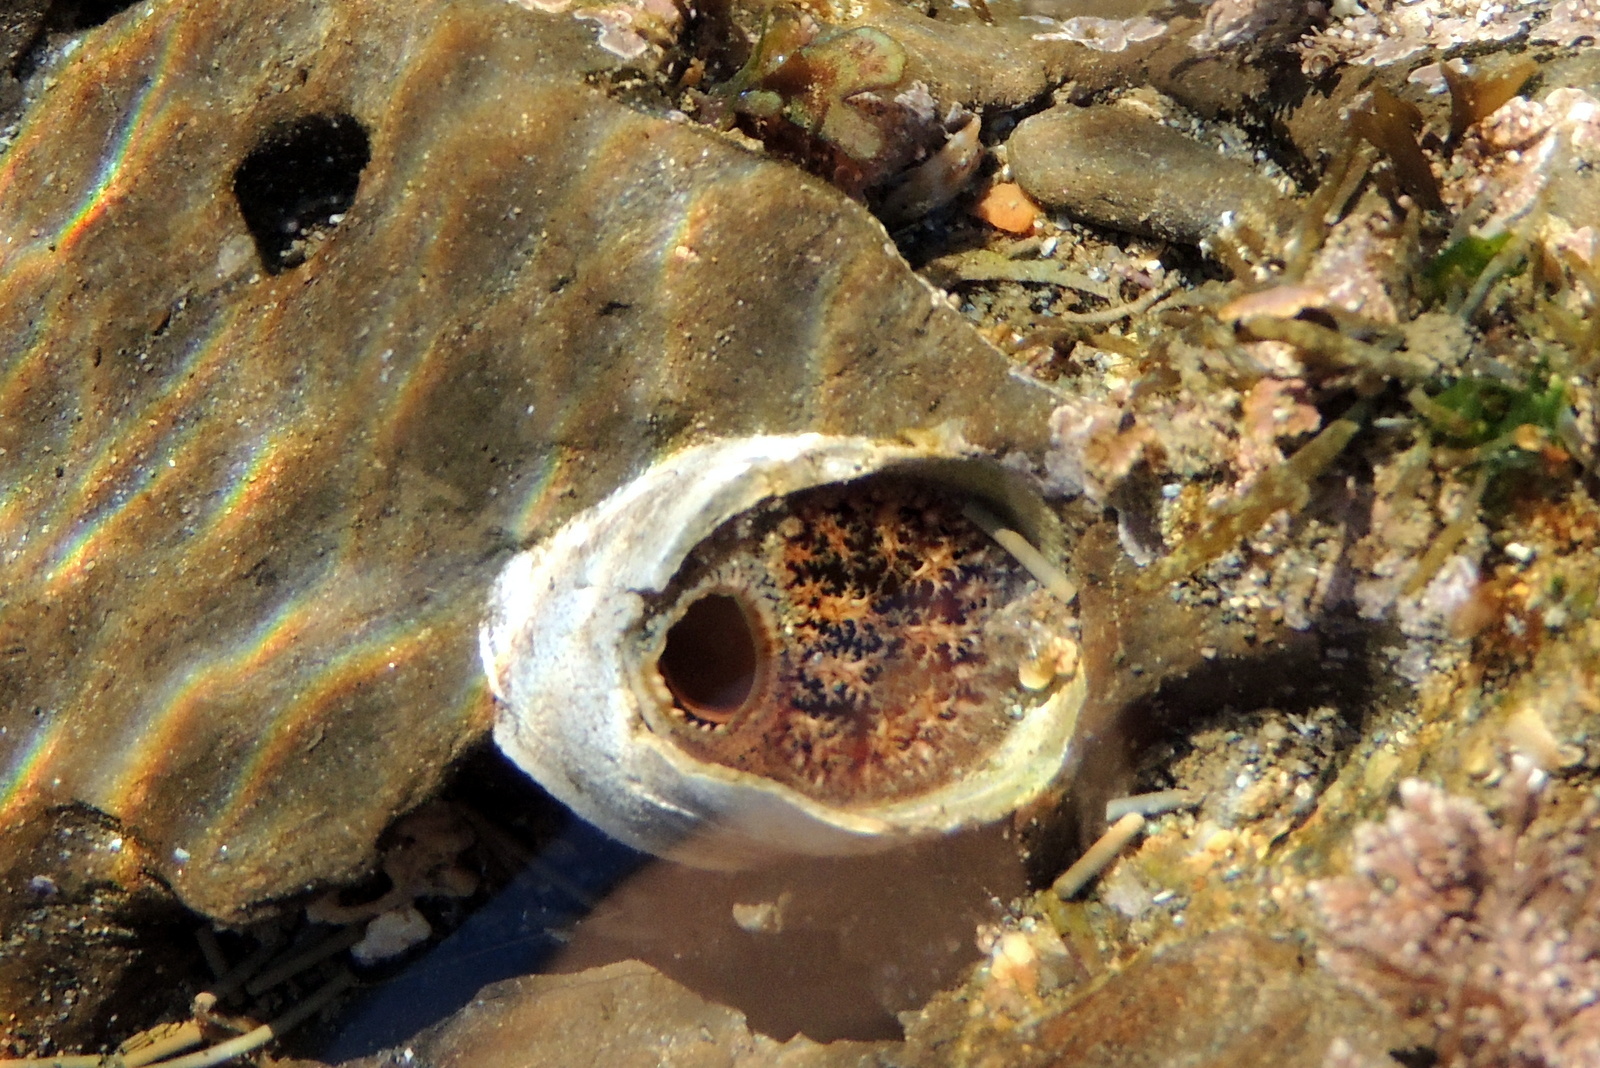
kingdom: Animalia
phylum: Mollusca
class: Bivalvia
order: Myida
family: Pholadidae
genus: Parapholas
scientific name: Parapholas californica
